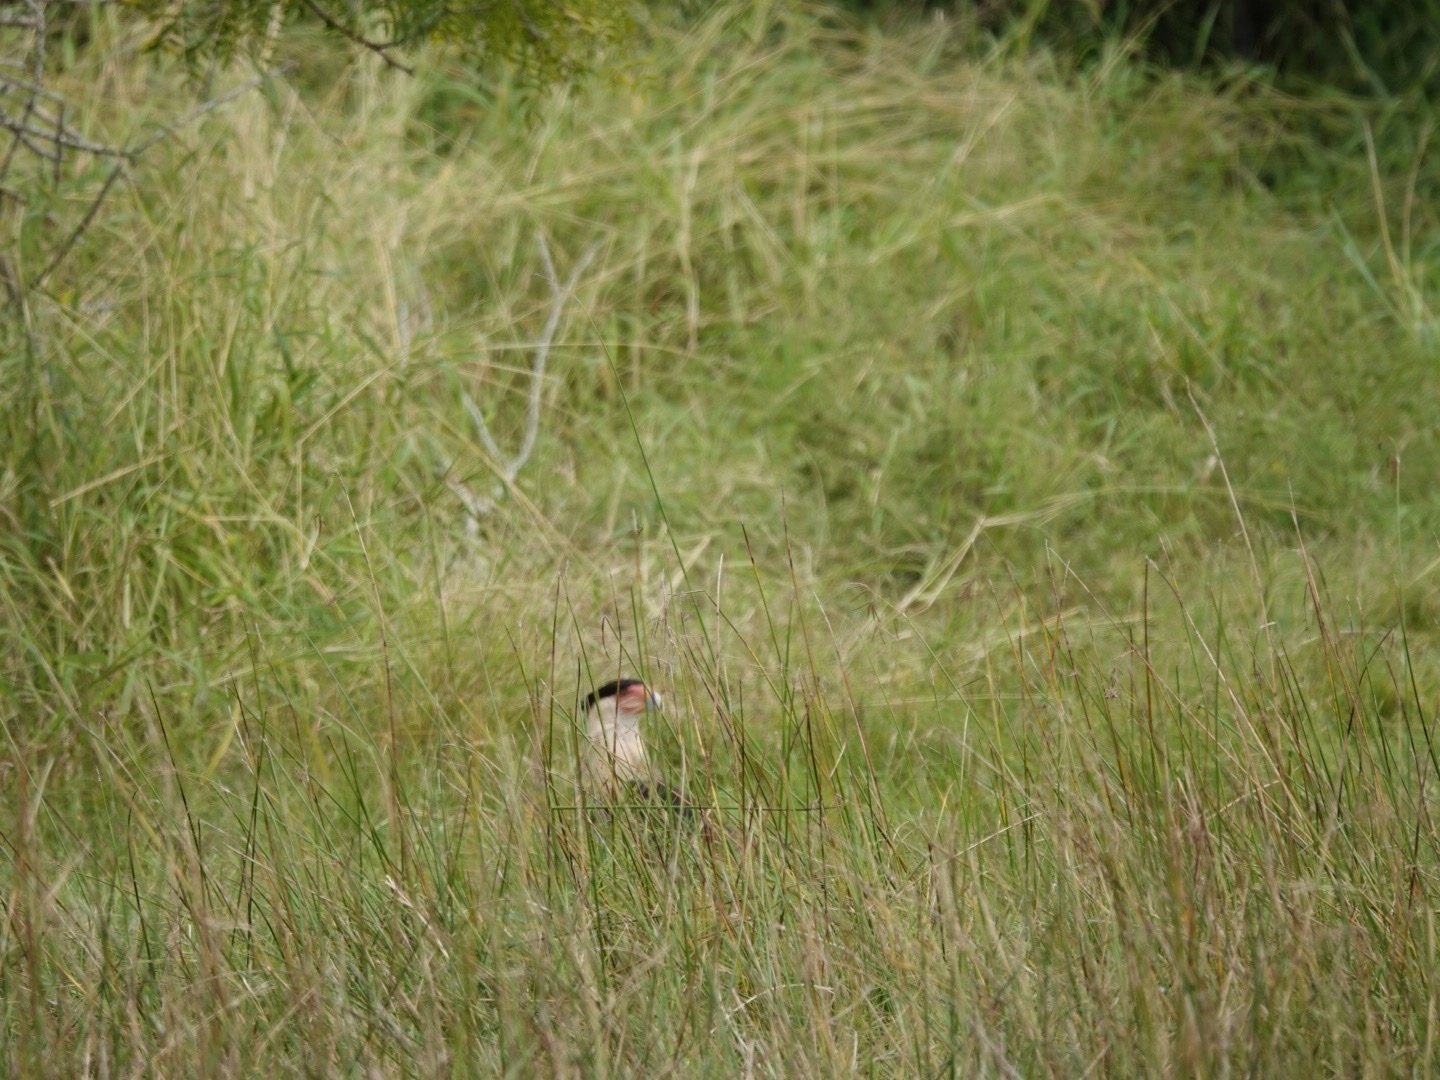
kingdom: Animalia
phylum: Chordata
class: Aves
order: Falconiformes
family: Falconidae
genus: Caracara
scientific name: Caracara plancus
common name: Southern caracara
